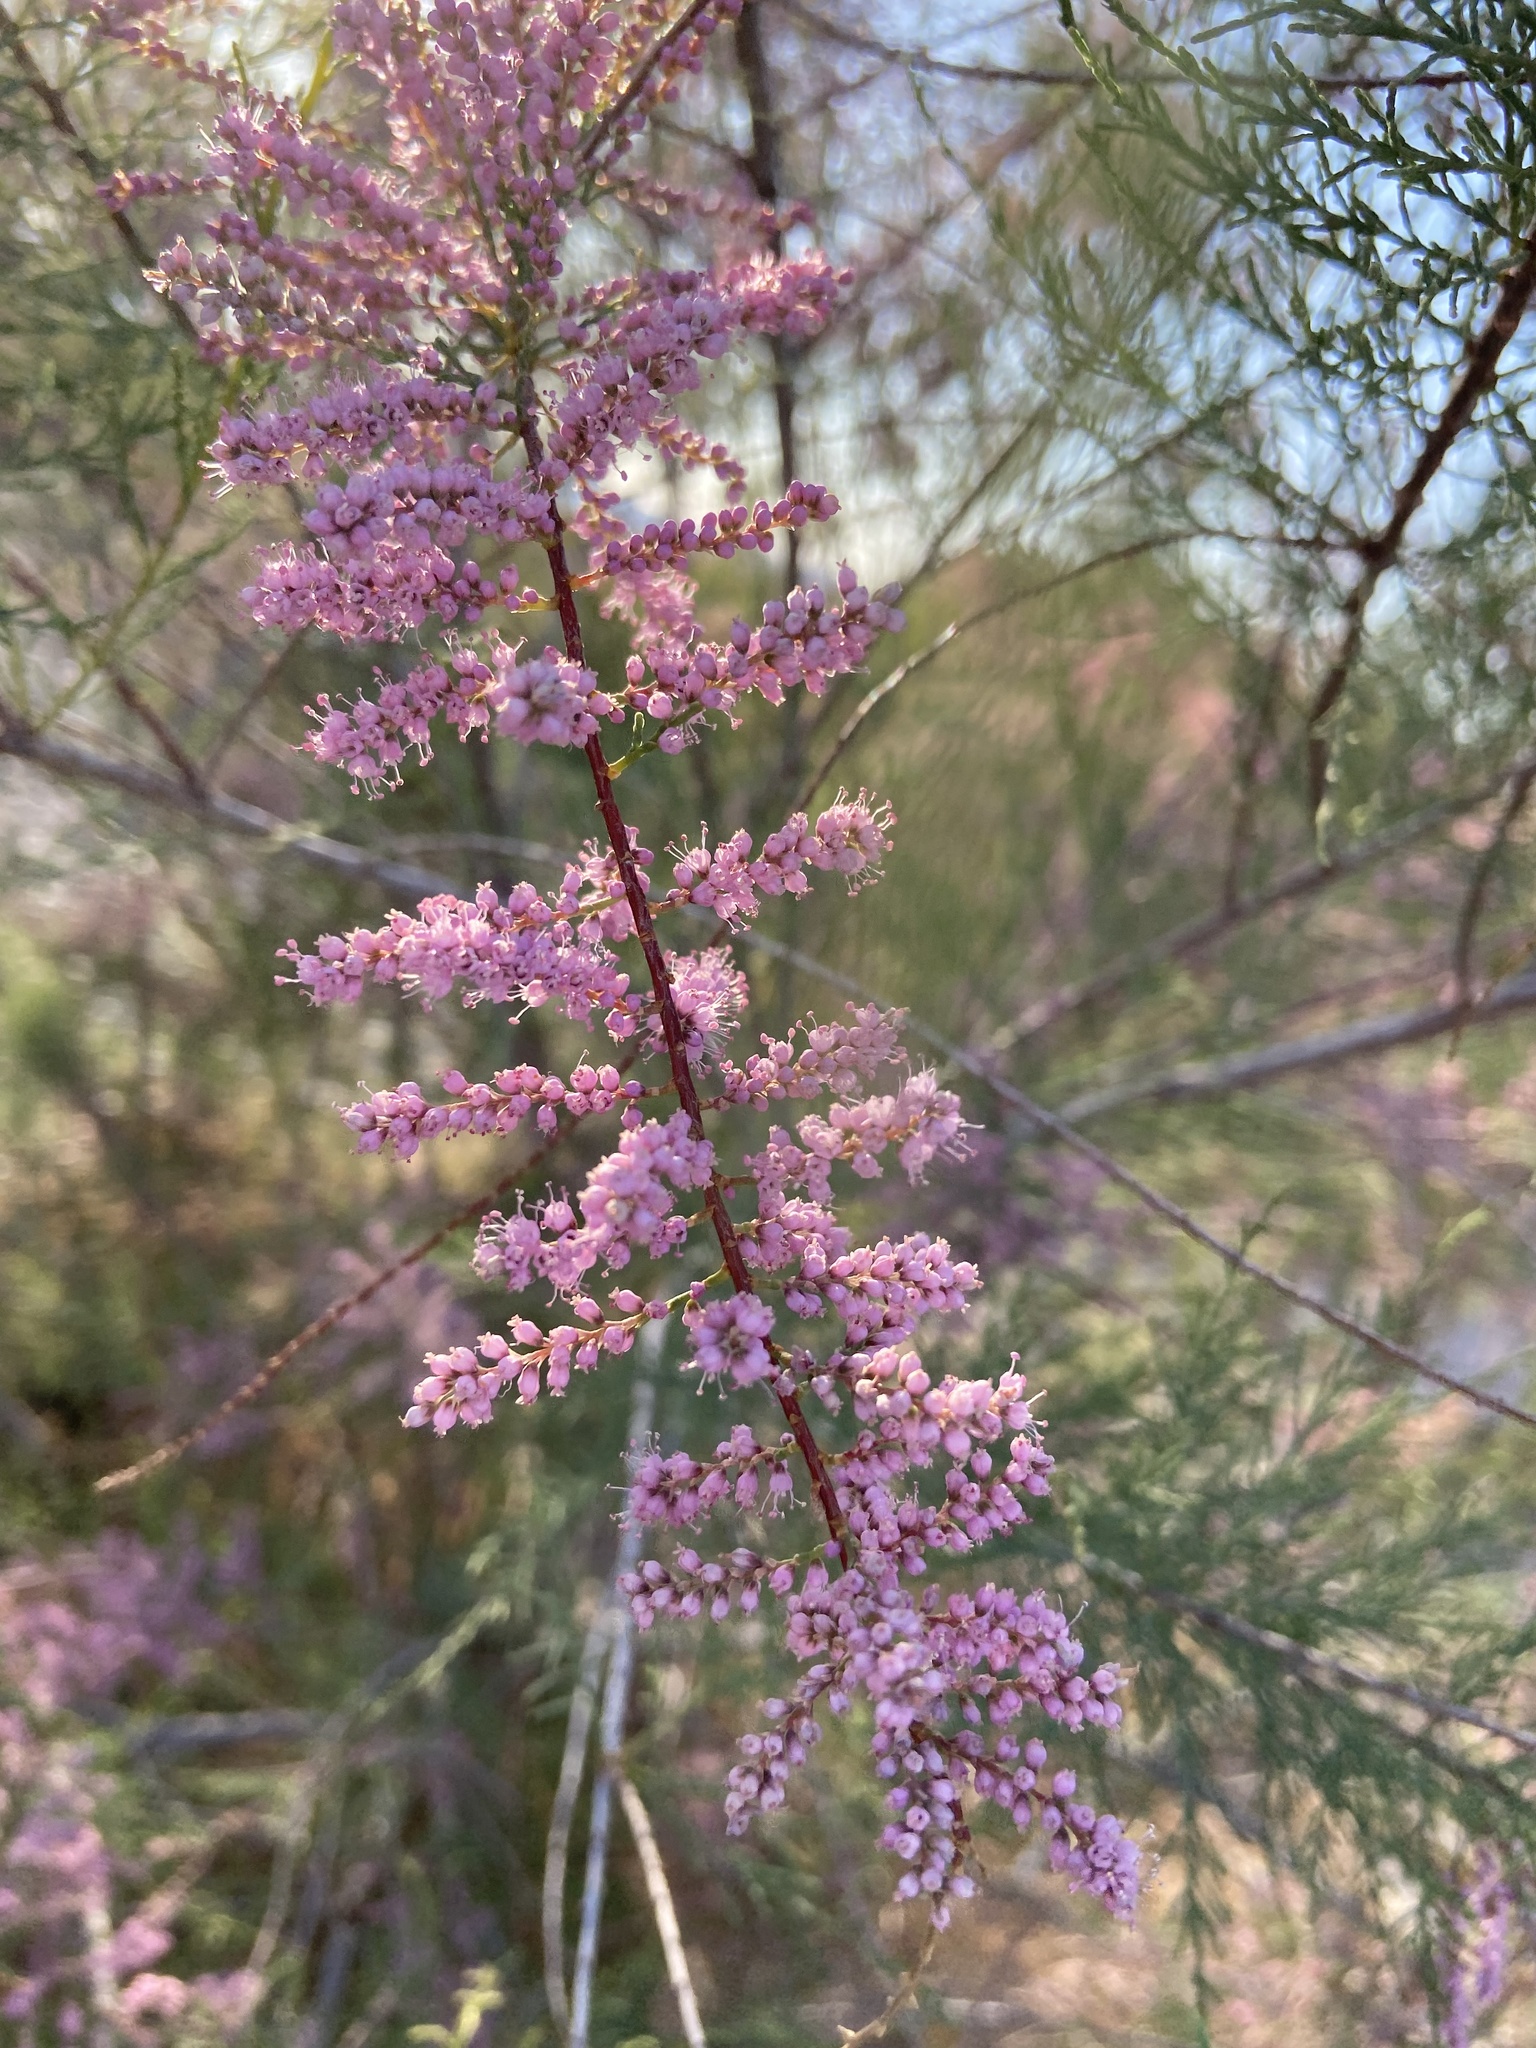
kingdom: Plantae
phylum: Tracheophyta
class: Magnoliopsida
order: Caryophyllales
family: Tamaricaceae
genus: Tamarix
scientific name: Tamarix chinensis
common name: Chinese tamarisk
